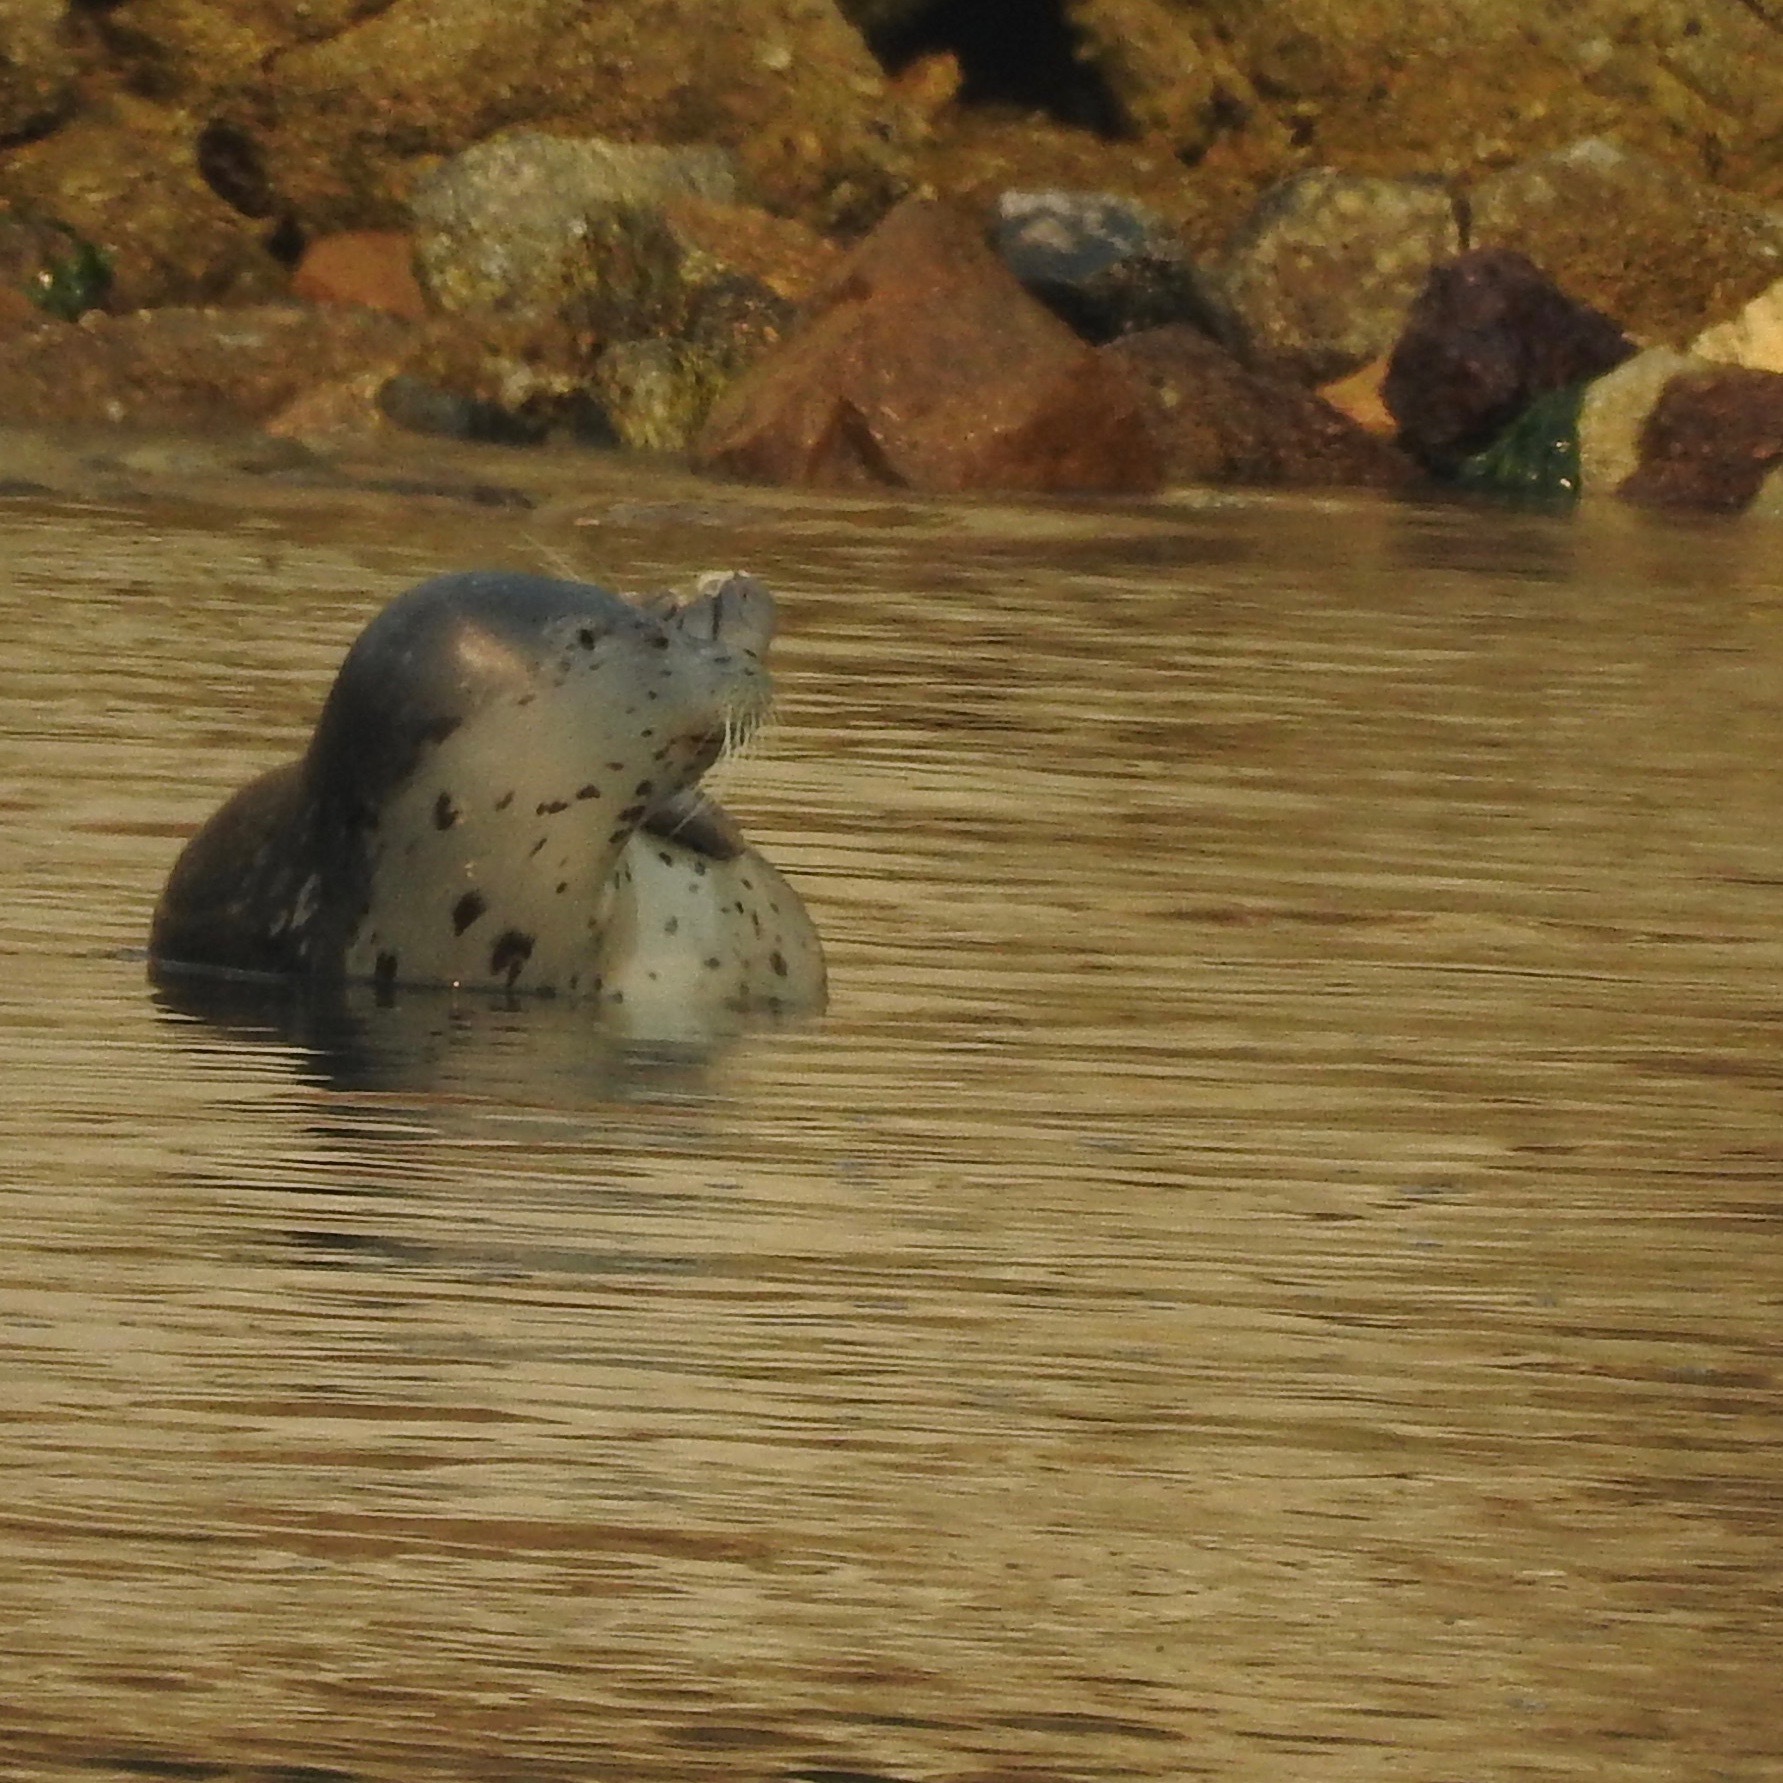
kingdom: Animalia
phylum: Chordata
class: Mammalia
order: Carnivora
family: Phocidae
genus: Phoca
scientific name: Phoca vitulina
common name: Harbor seal
